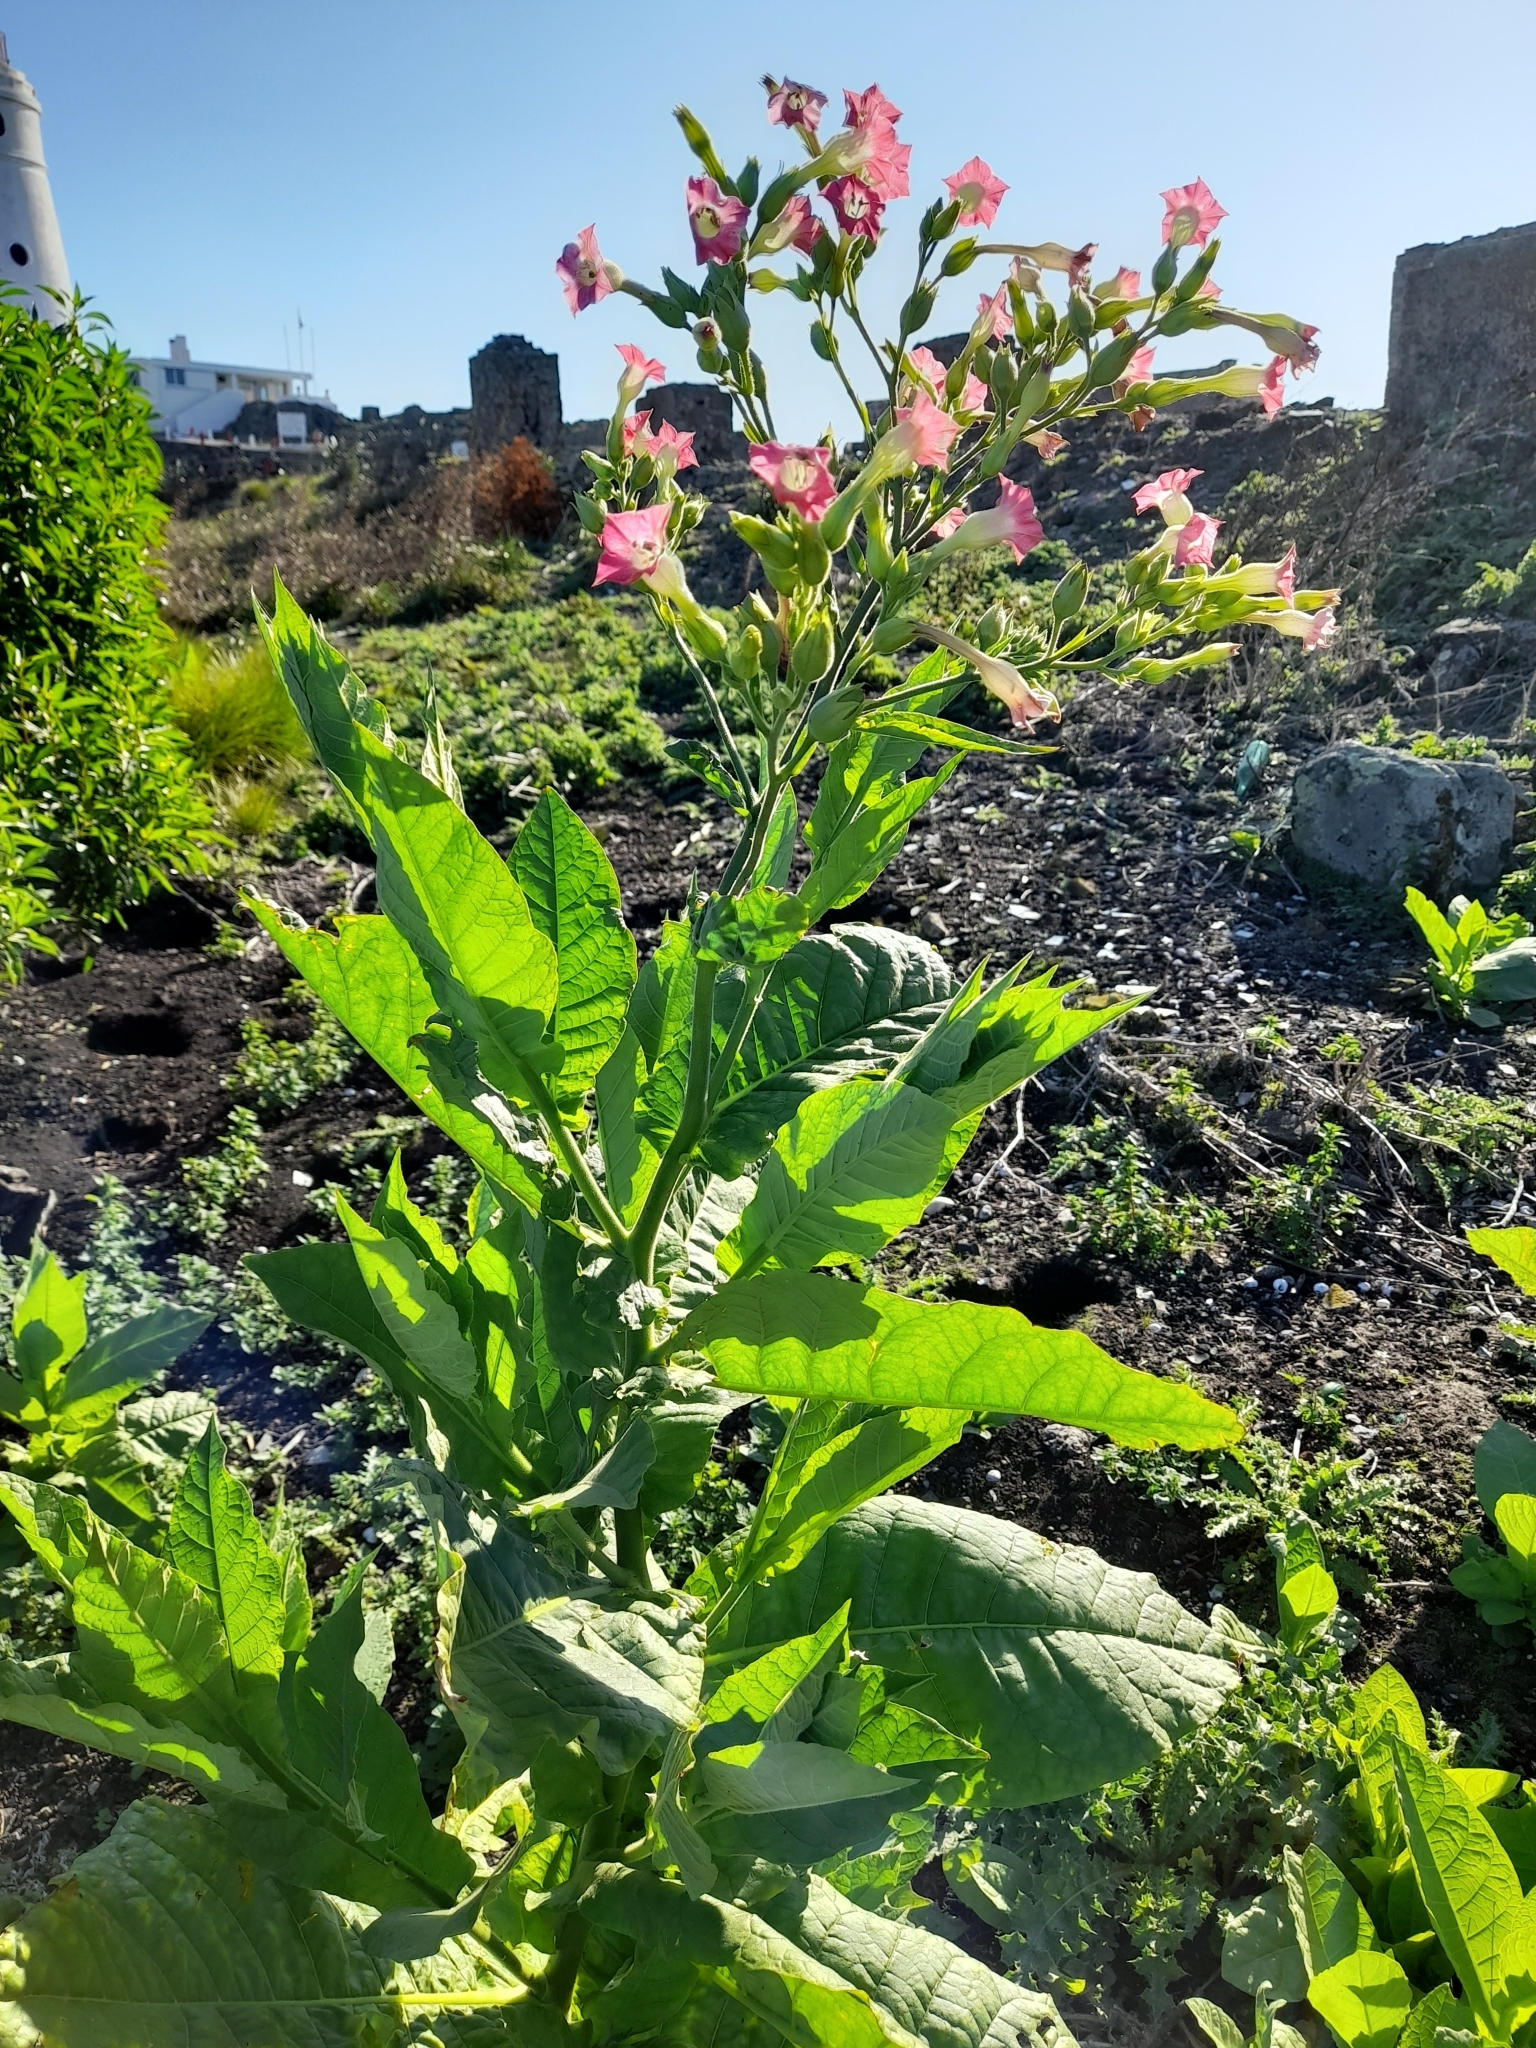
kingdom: Plantae
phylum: Tracheophyta
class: Magnoliopsida
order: Solanales
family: Solanaceae
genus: Nicotiana
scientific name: Nicotiana tabacum
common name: Tobacco
